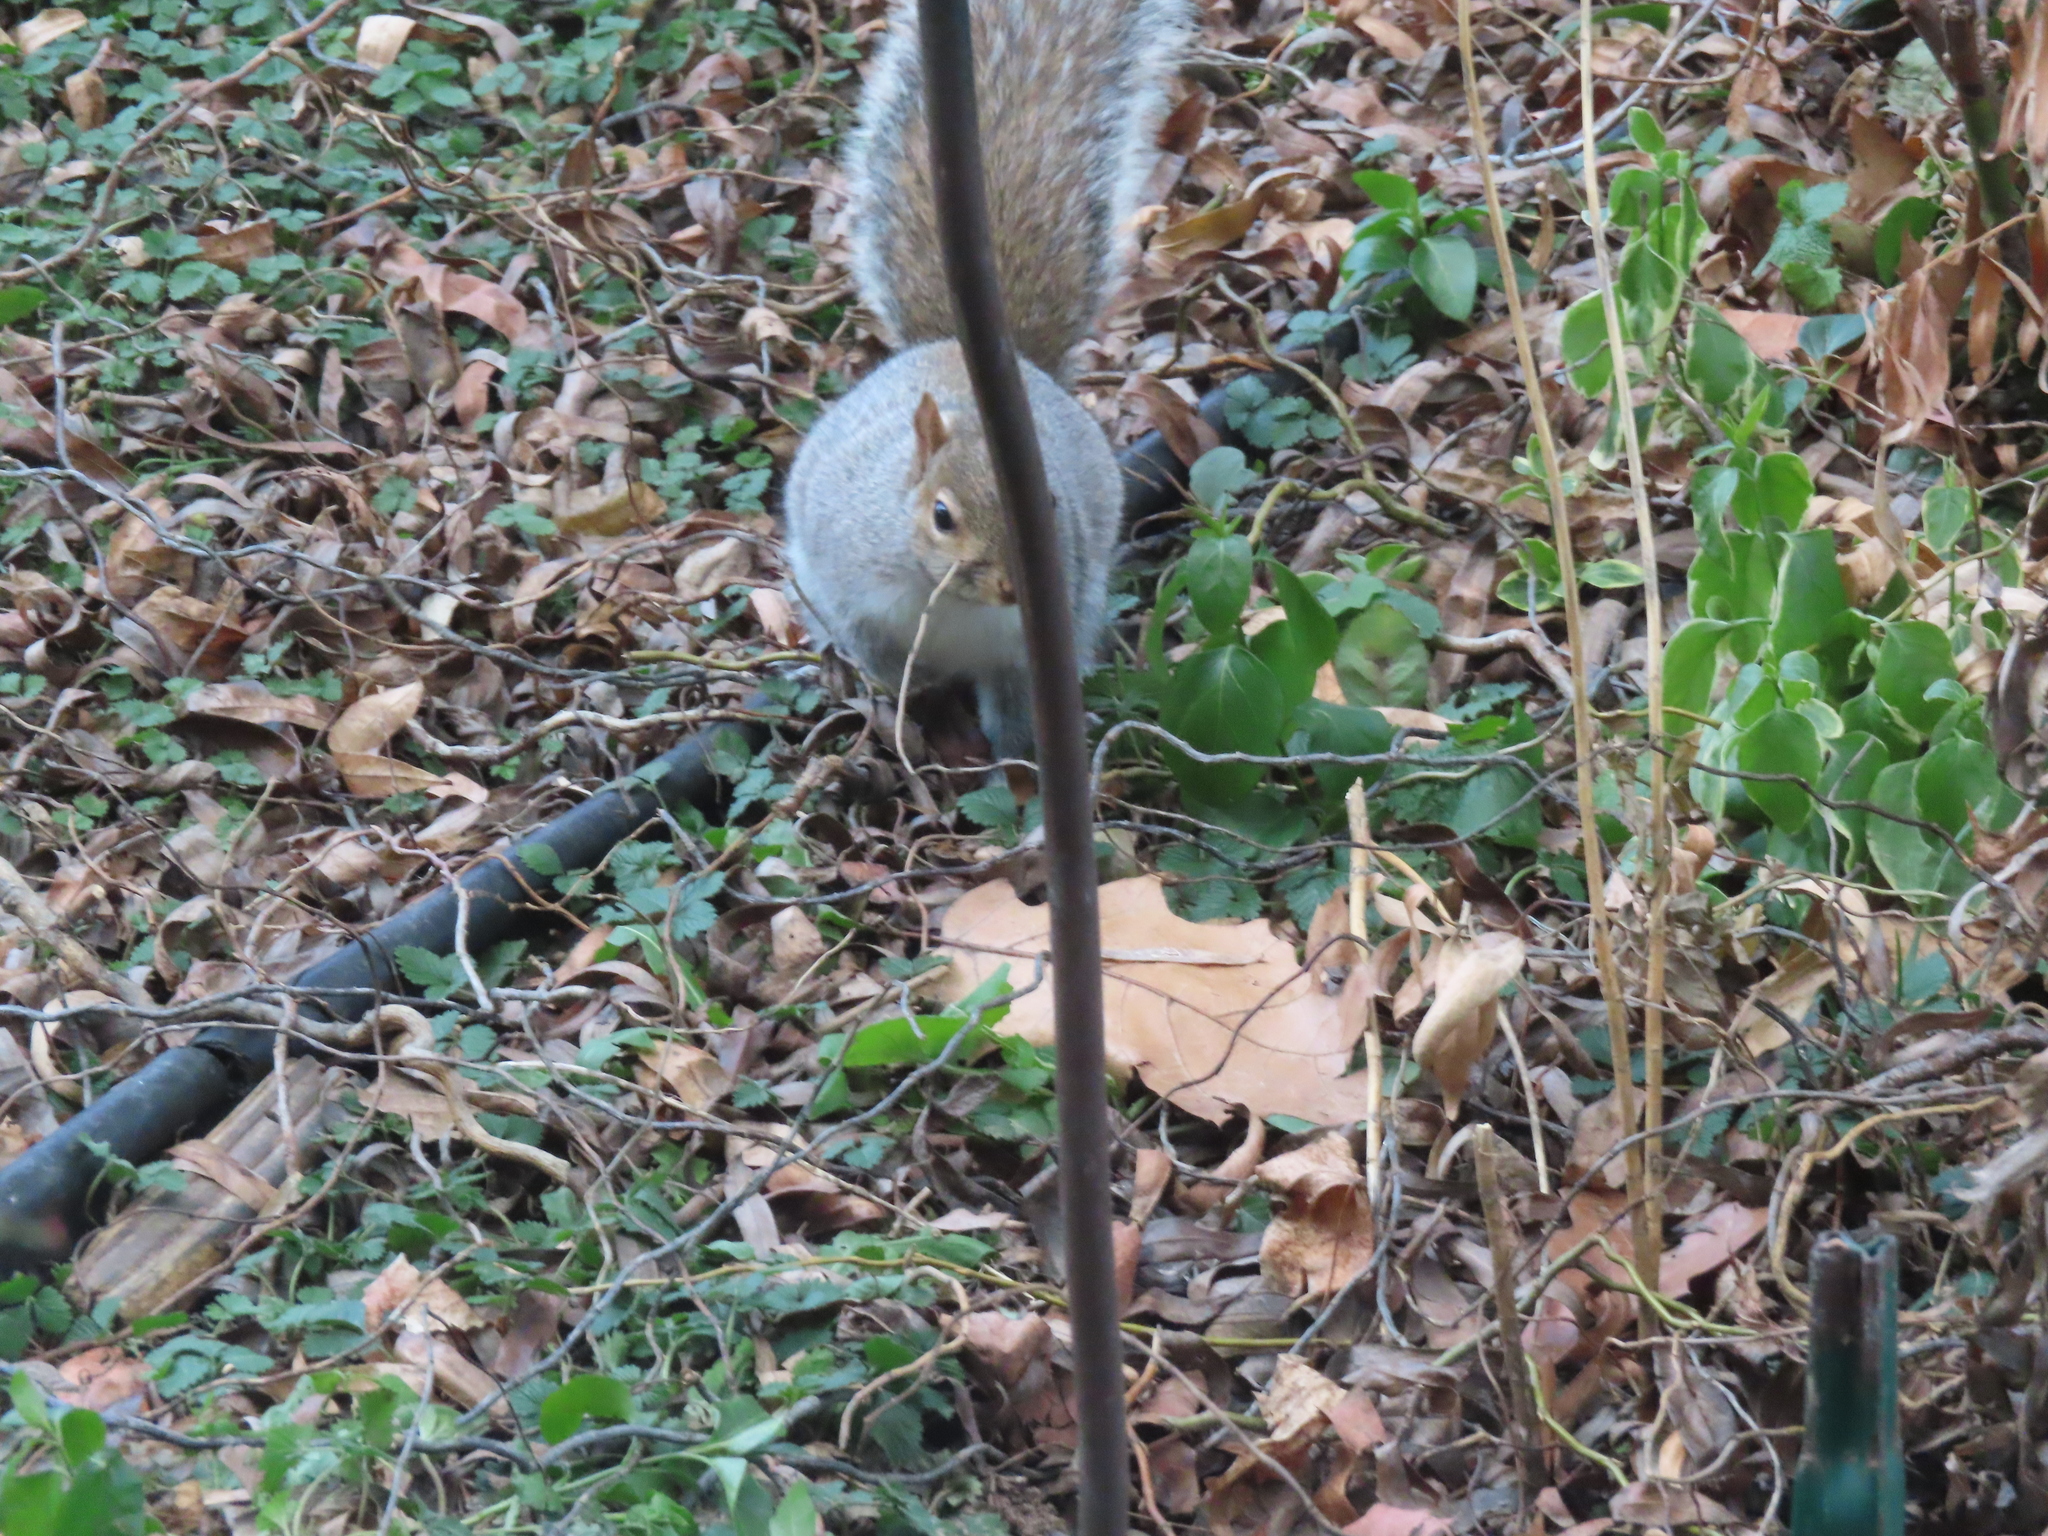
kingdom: Animalia
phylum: Chordata
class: Mammalia
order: Rodentia
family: Sciuridae
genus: Sciurus
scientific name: Sciurus carolinensis
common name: Eastern gray squirrel
